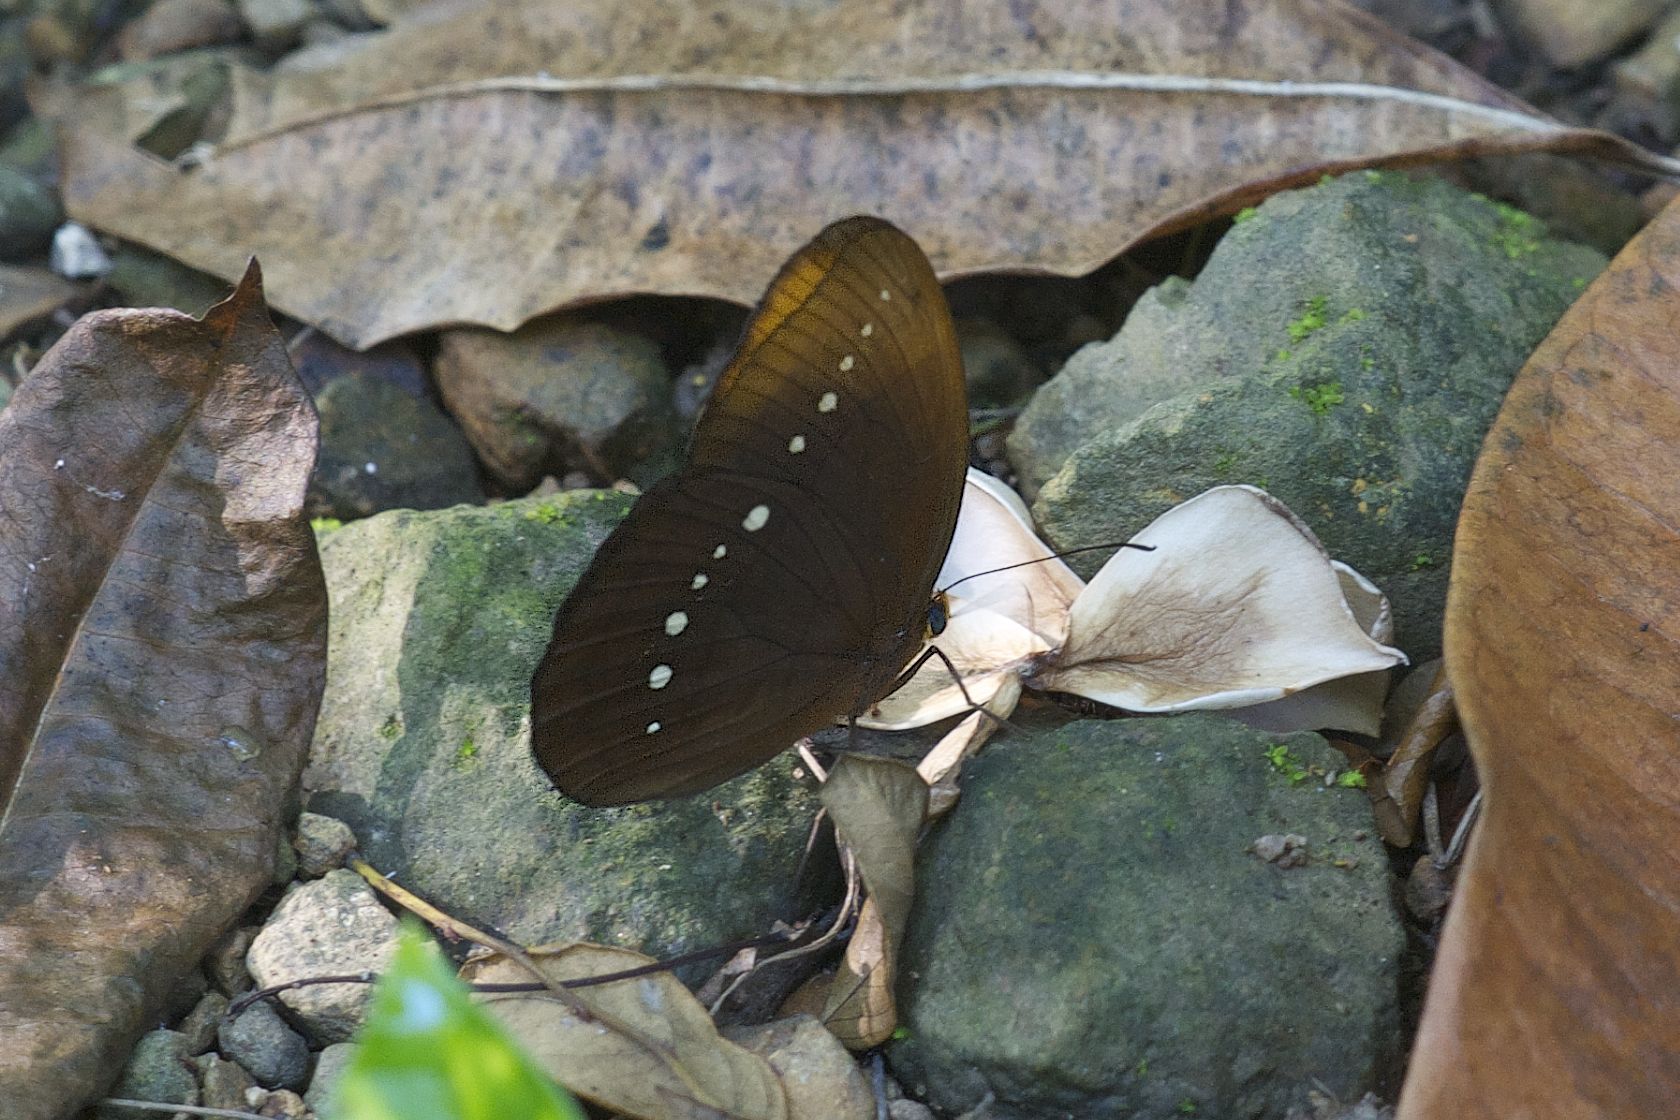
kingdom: Animalia
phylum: Arthropoda
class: Insecta
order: Lepidoptera
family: Nymphalidae
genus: Faunis
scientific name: Faunis eumeus
